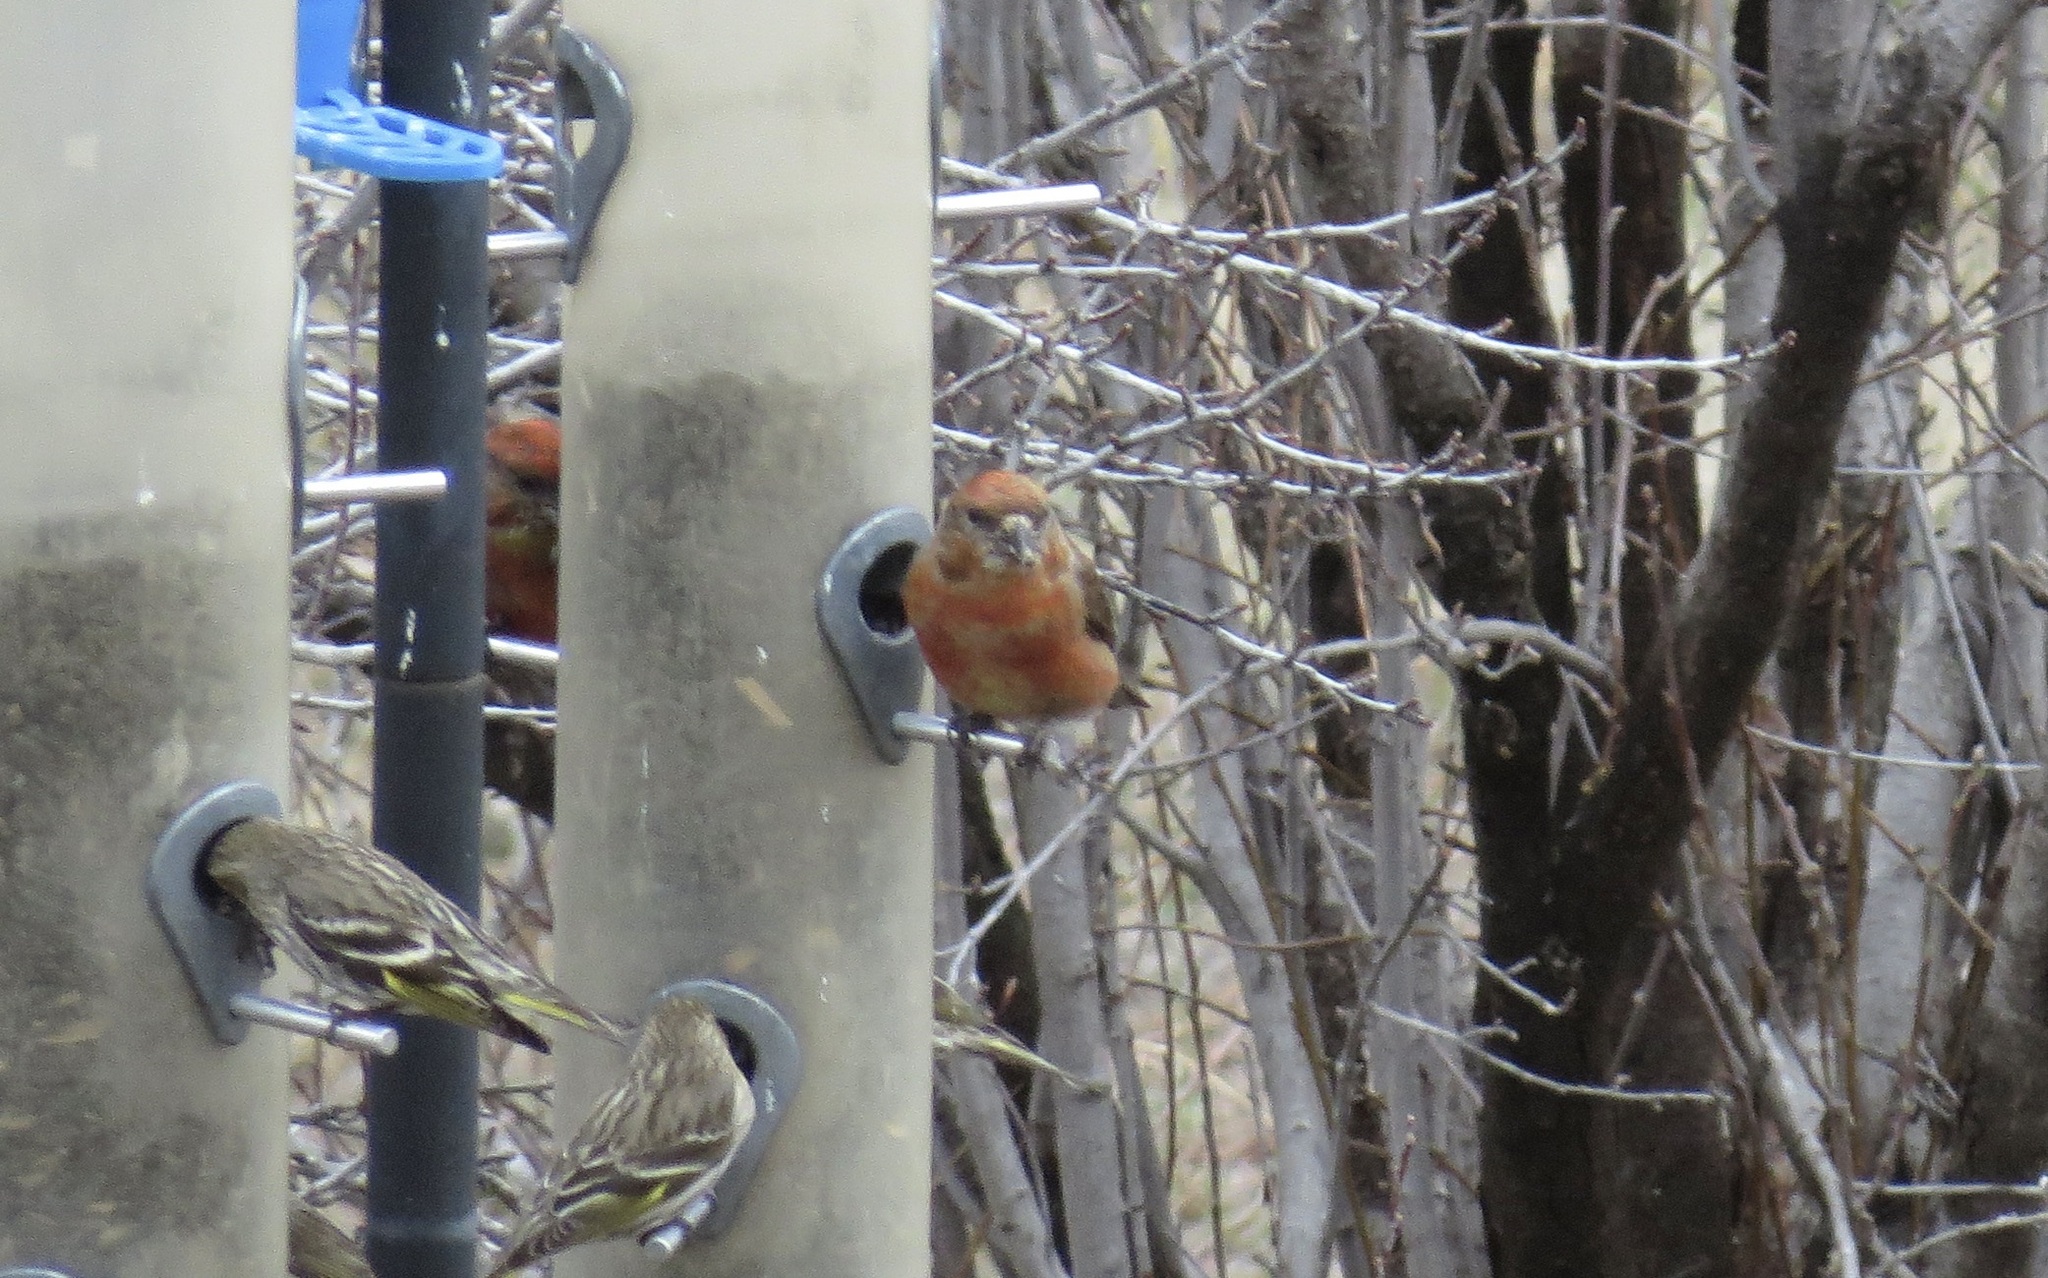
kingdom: Animalia
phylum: Chordata
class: Aves
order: Passeriformes
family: Fringillidae
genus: Loxia
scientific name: Loxia curvirostra
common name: Red crossbill
